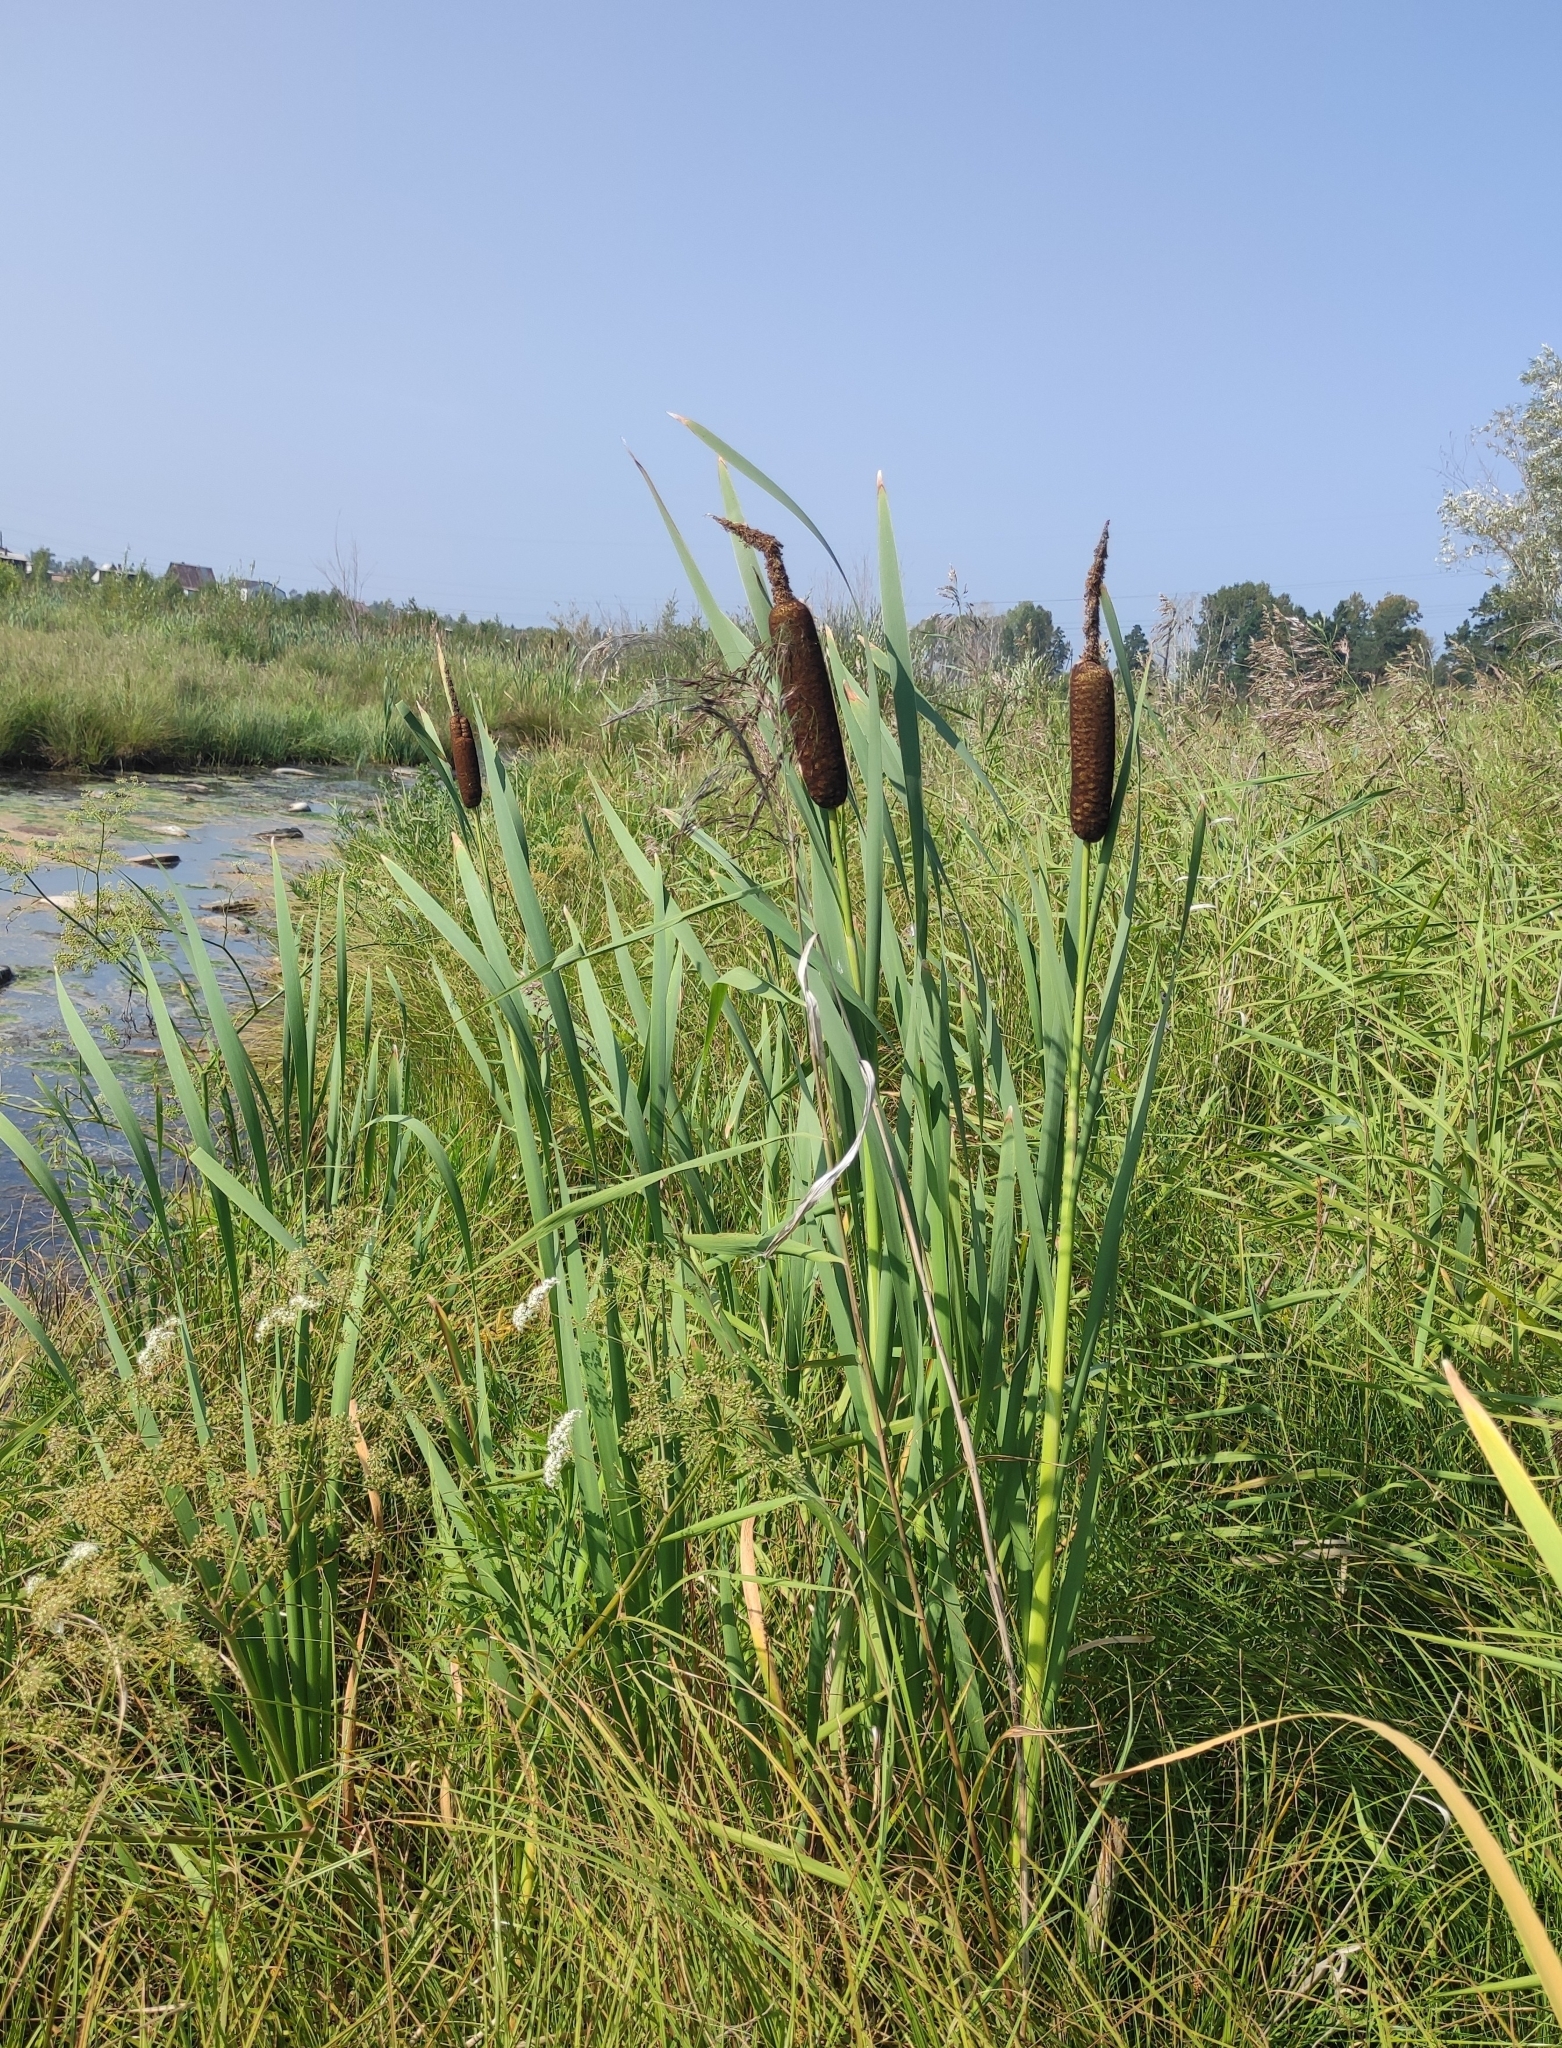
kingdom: Plantae
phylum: Tracheophyta
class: Liliopsida
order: Poales
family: Typhaceae
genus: Typha
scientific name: Typha latifolia
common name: Broadleaf cattail
